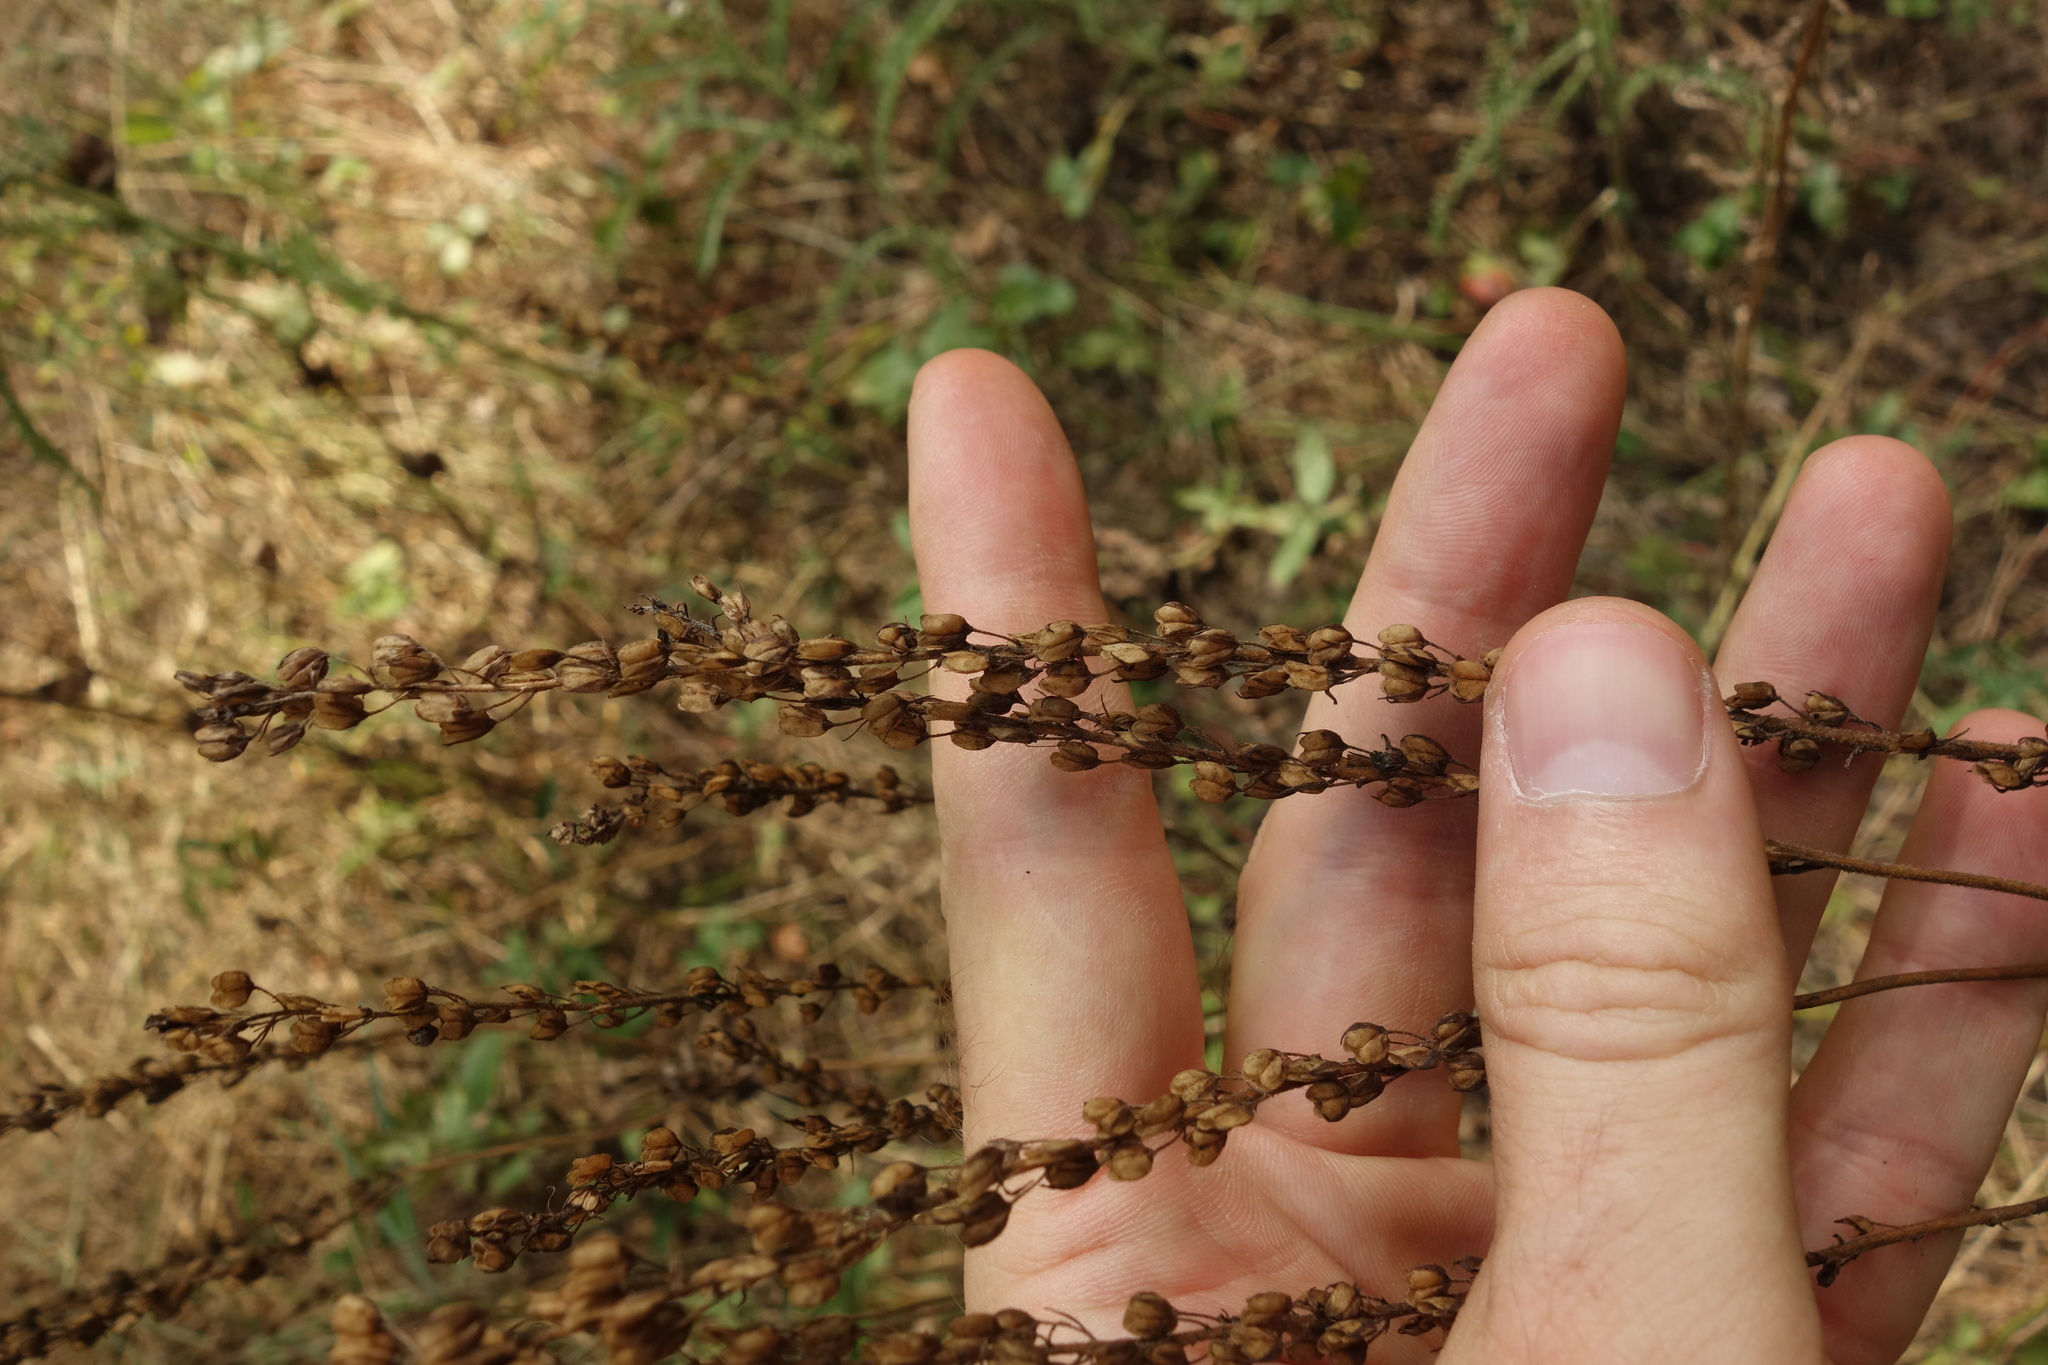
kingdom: Plantae
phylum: Tracheophyta
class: Magnoliopsida
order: Lamiales
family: Plantaginaceae
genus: Veronica
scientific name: Veronica teucrium
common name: Large speedwell
